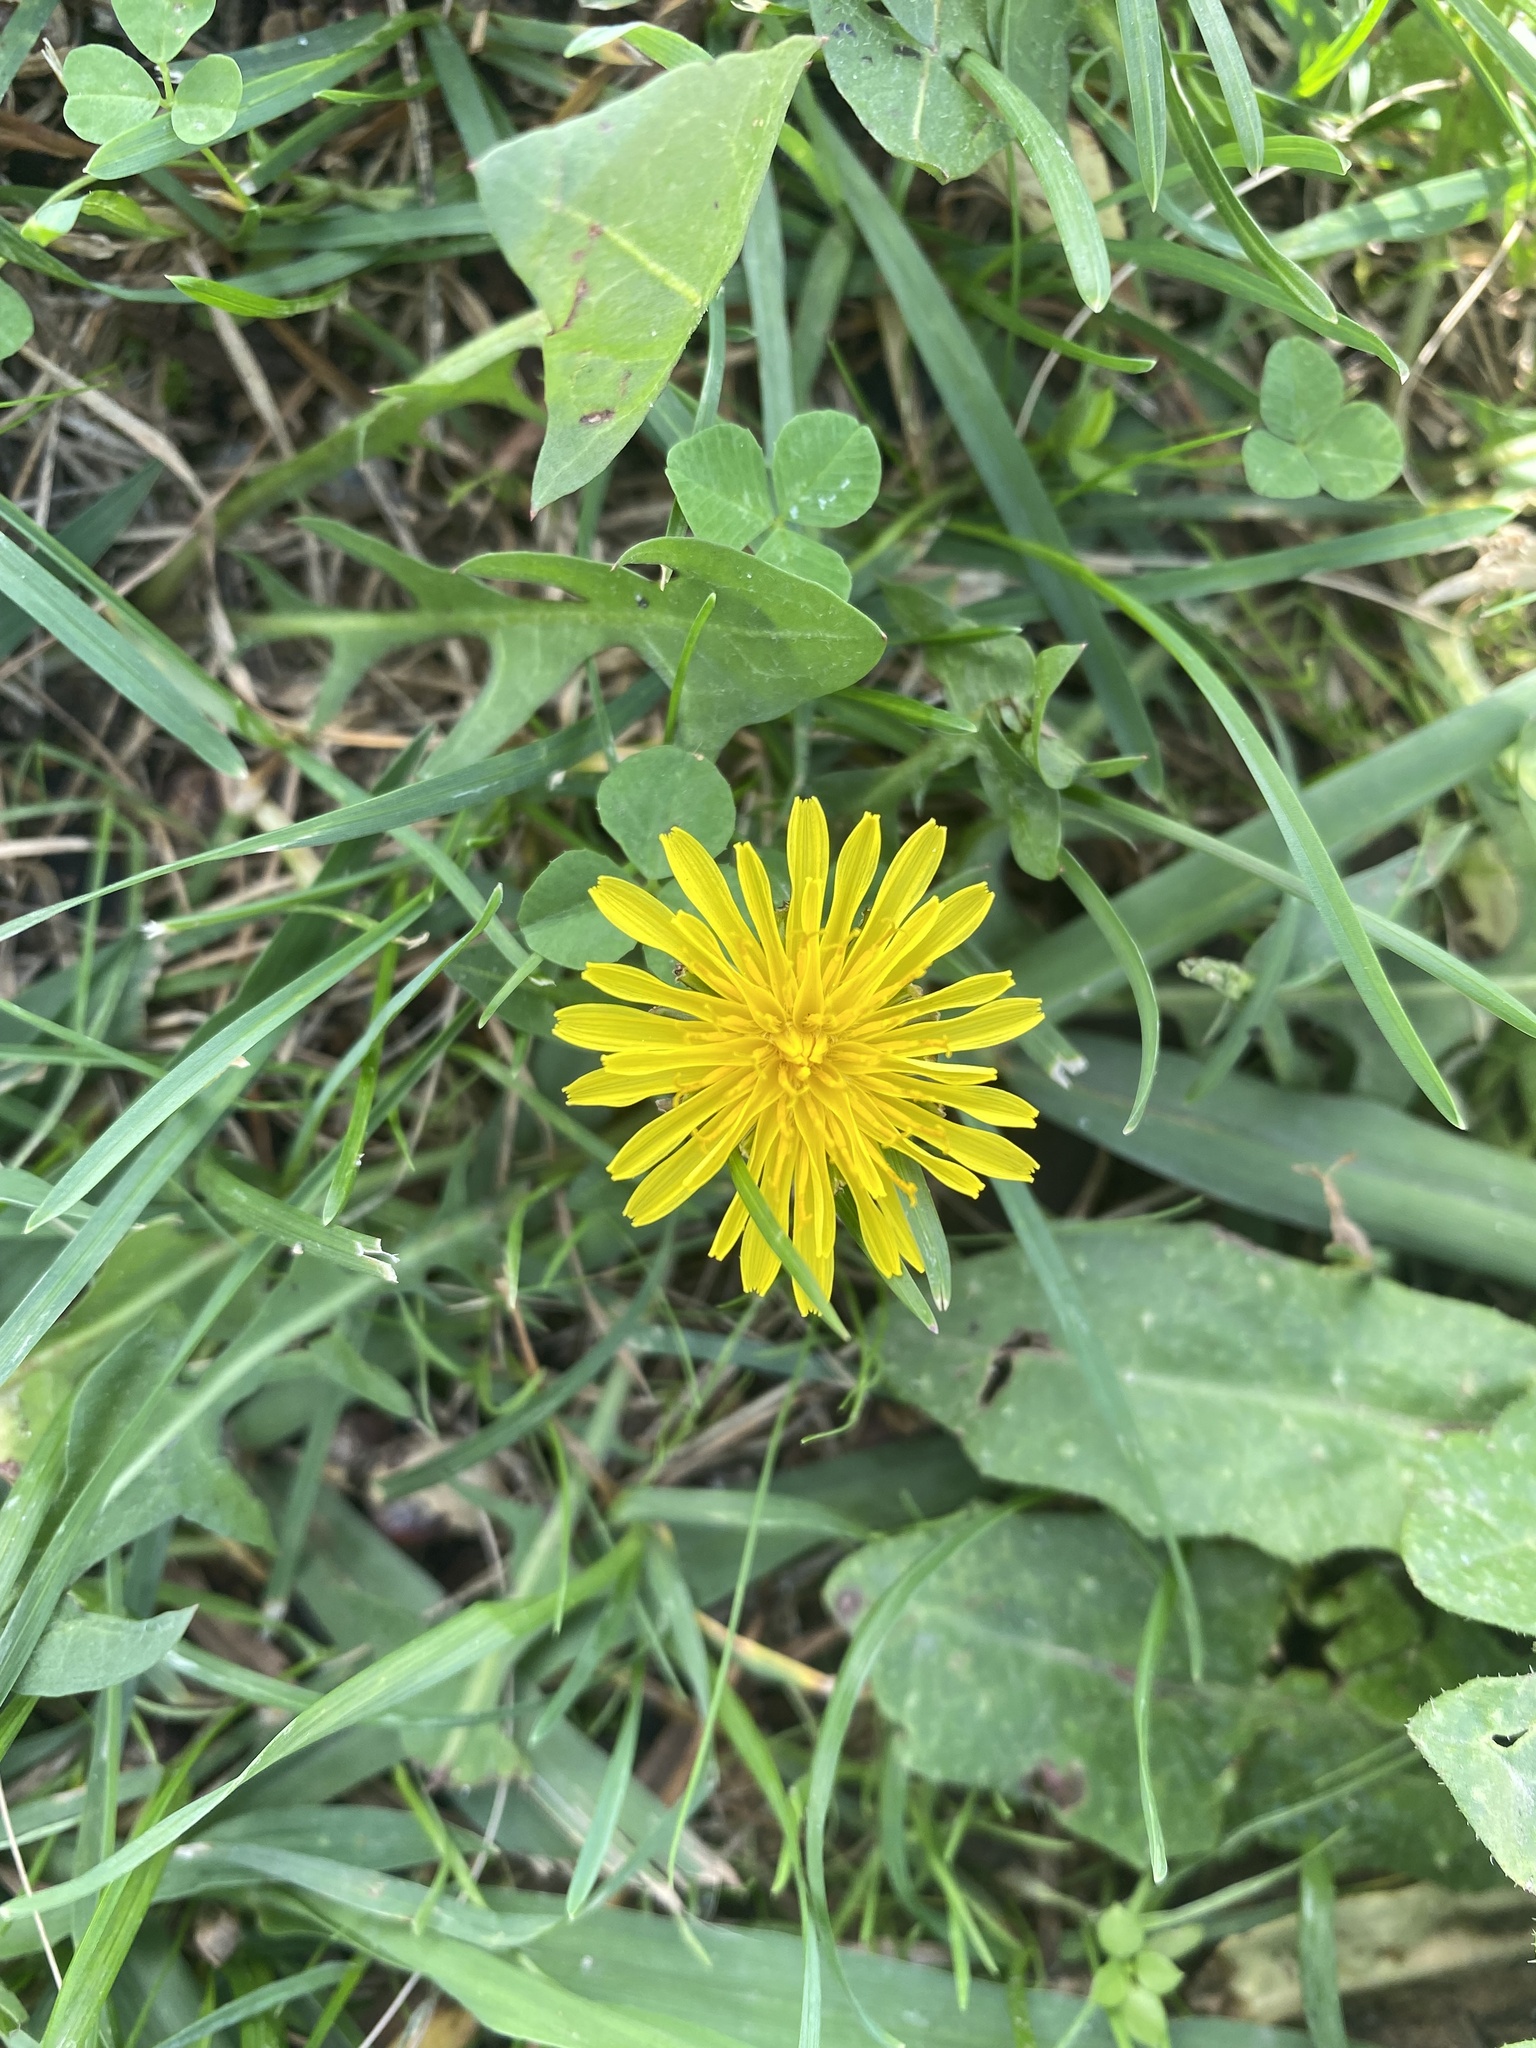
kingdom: Plantae
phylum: Tracheophyta
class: Magnoliopsida
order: Asterales
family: Asteraceae
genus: Taraxacum
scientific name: Taraxacum officinale
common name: Common dandelion
